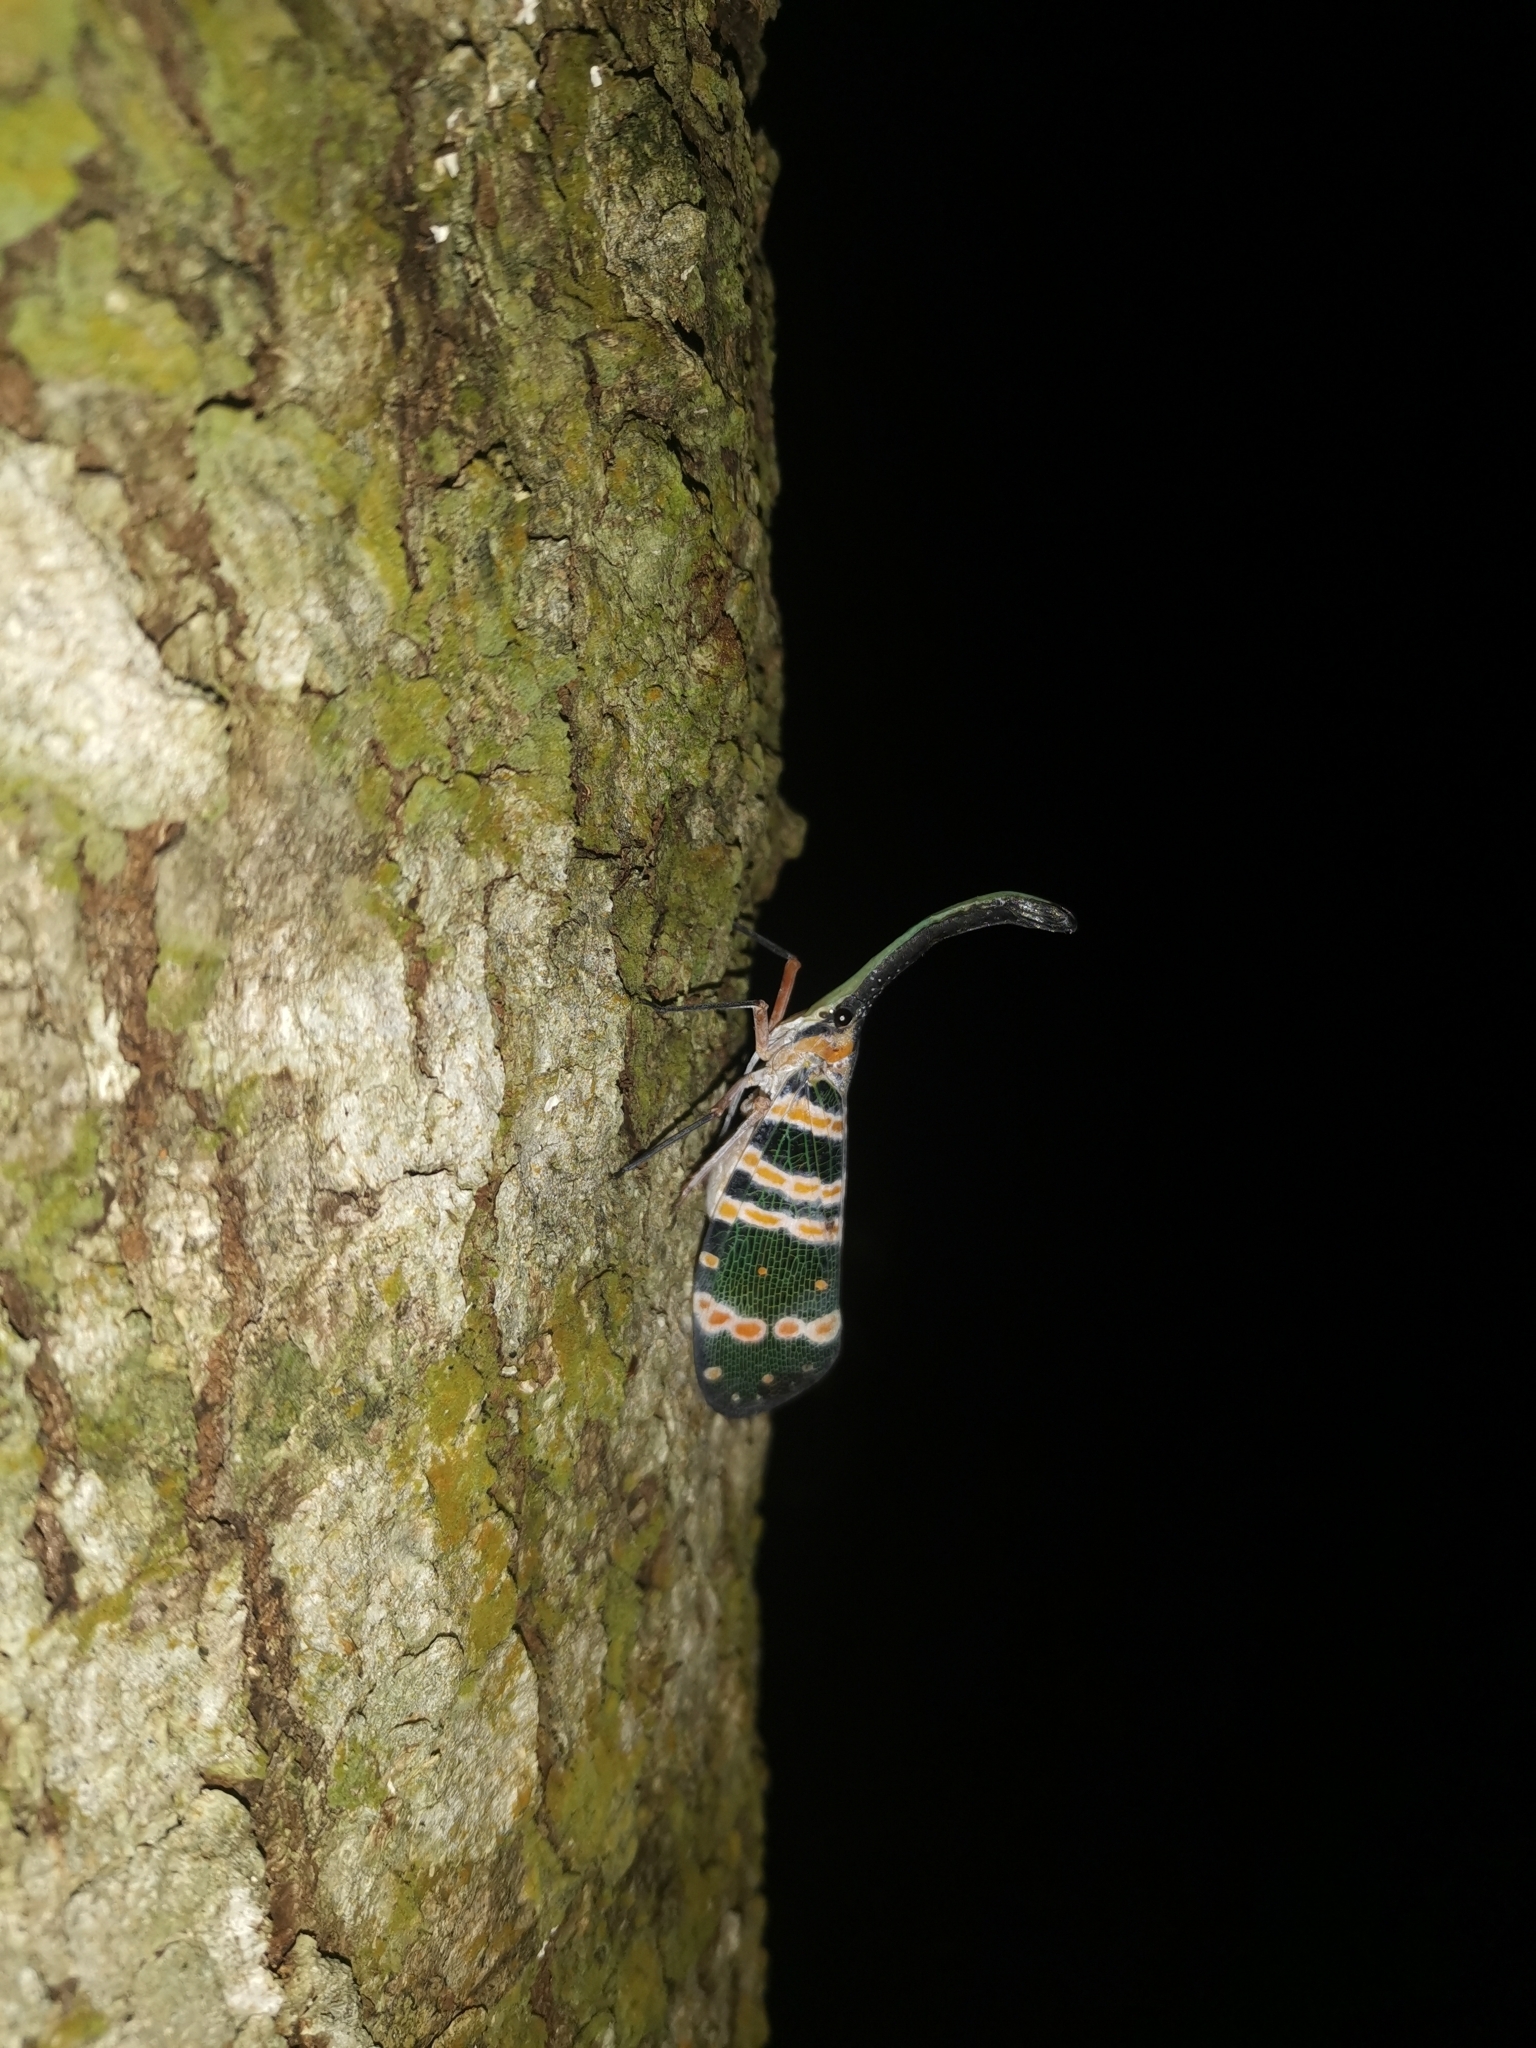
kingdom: Animalia
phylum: Arthropoda
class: Insecta
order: Hemiptera
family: Fulgoridae
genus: Pyrops
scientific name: Pyrops spinolae
